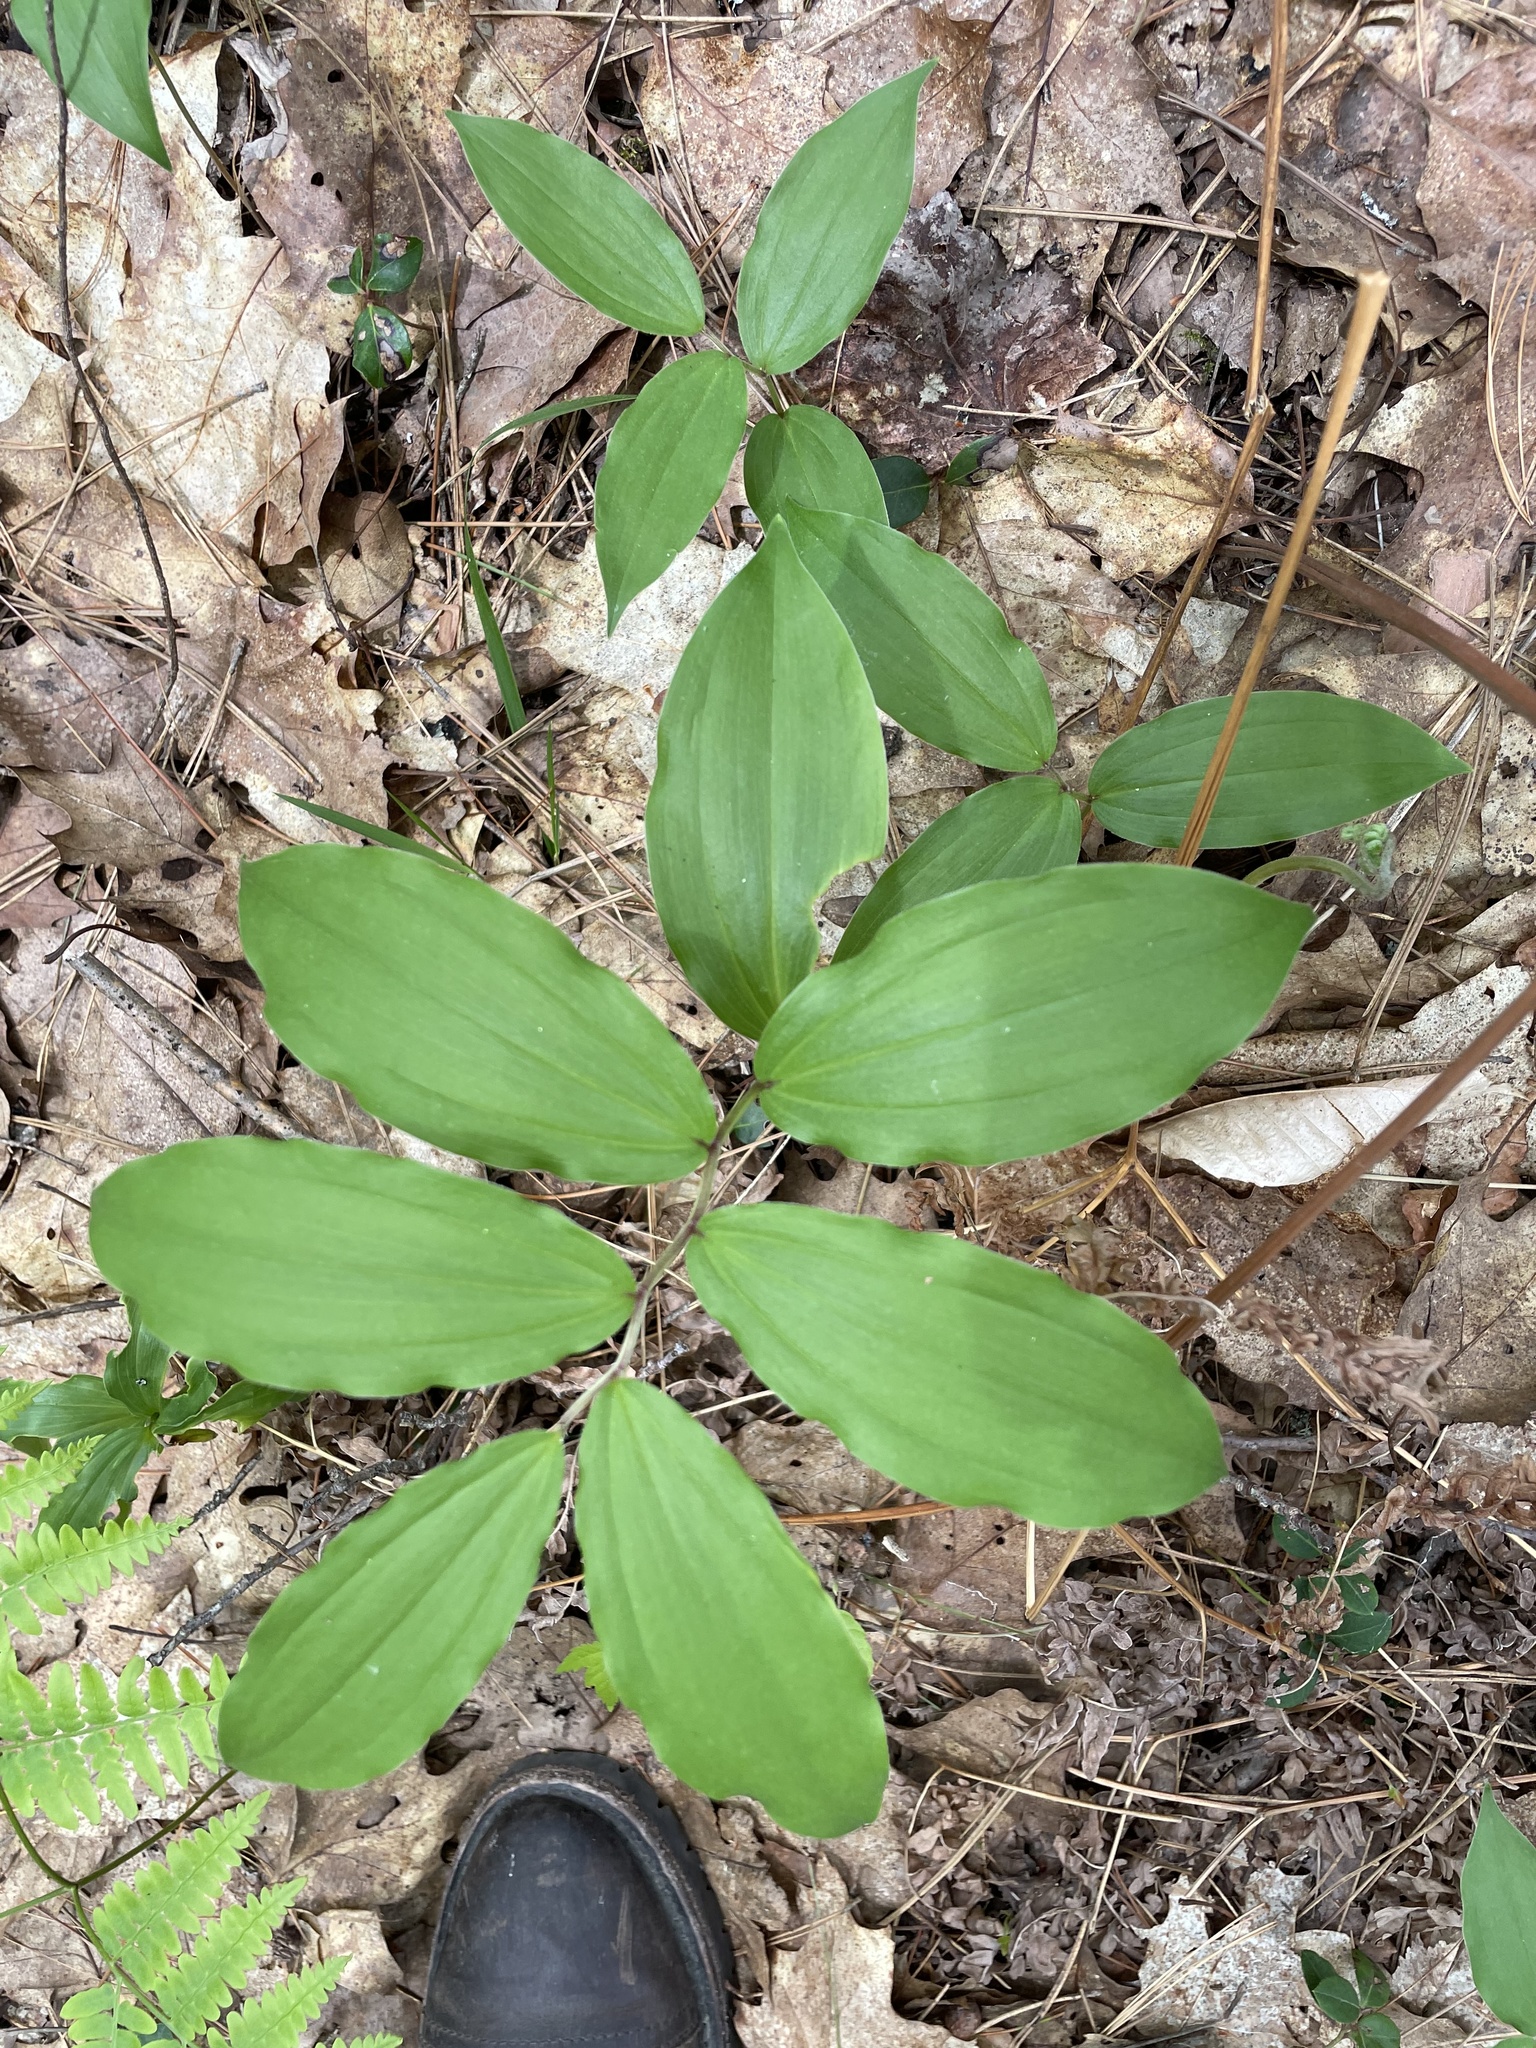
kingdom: Plantae
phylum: Tracheophyta
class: Liliopsida
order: Asparagales
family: Asparagaceae
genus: Maianthemum
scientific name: Maianthemum racemosum
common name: False spikenard
